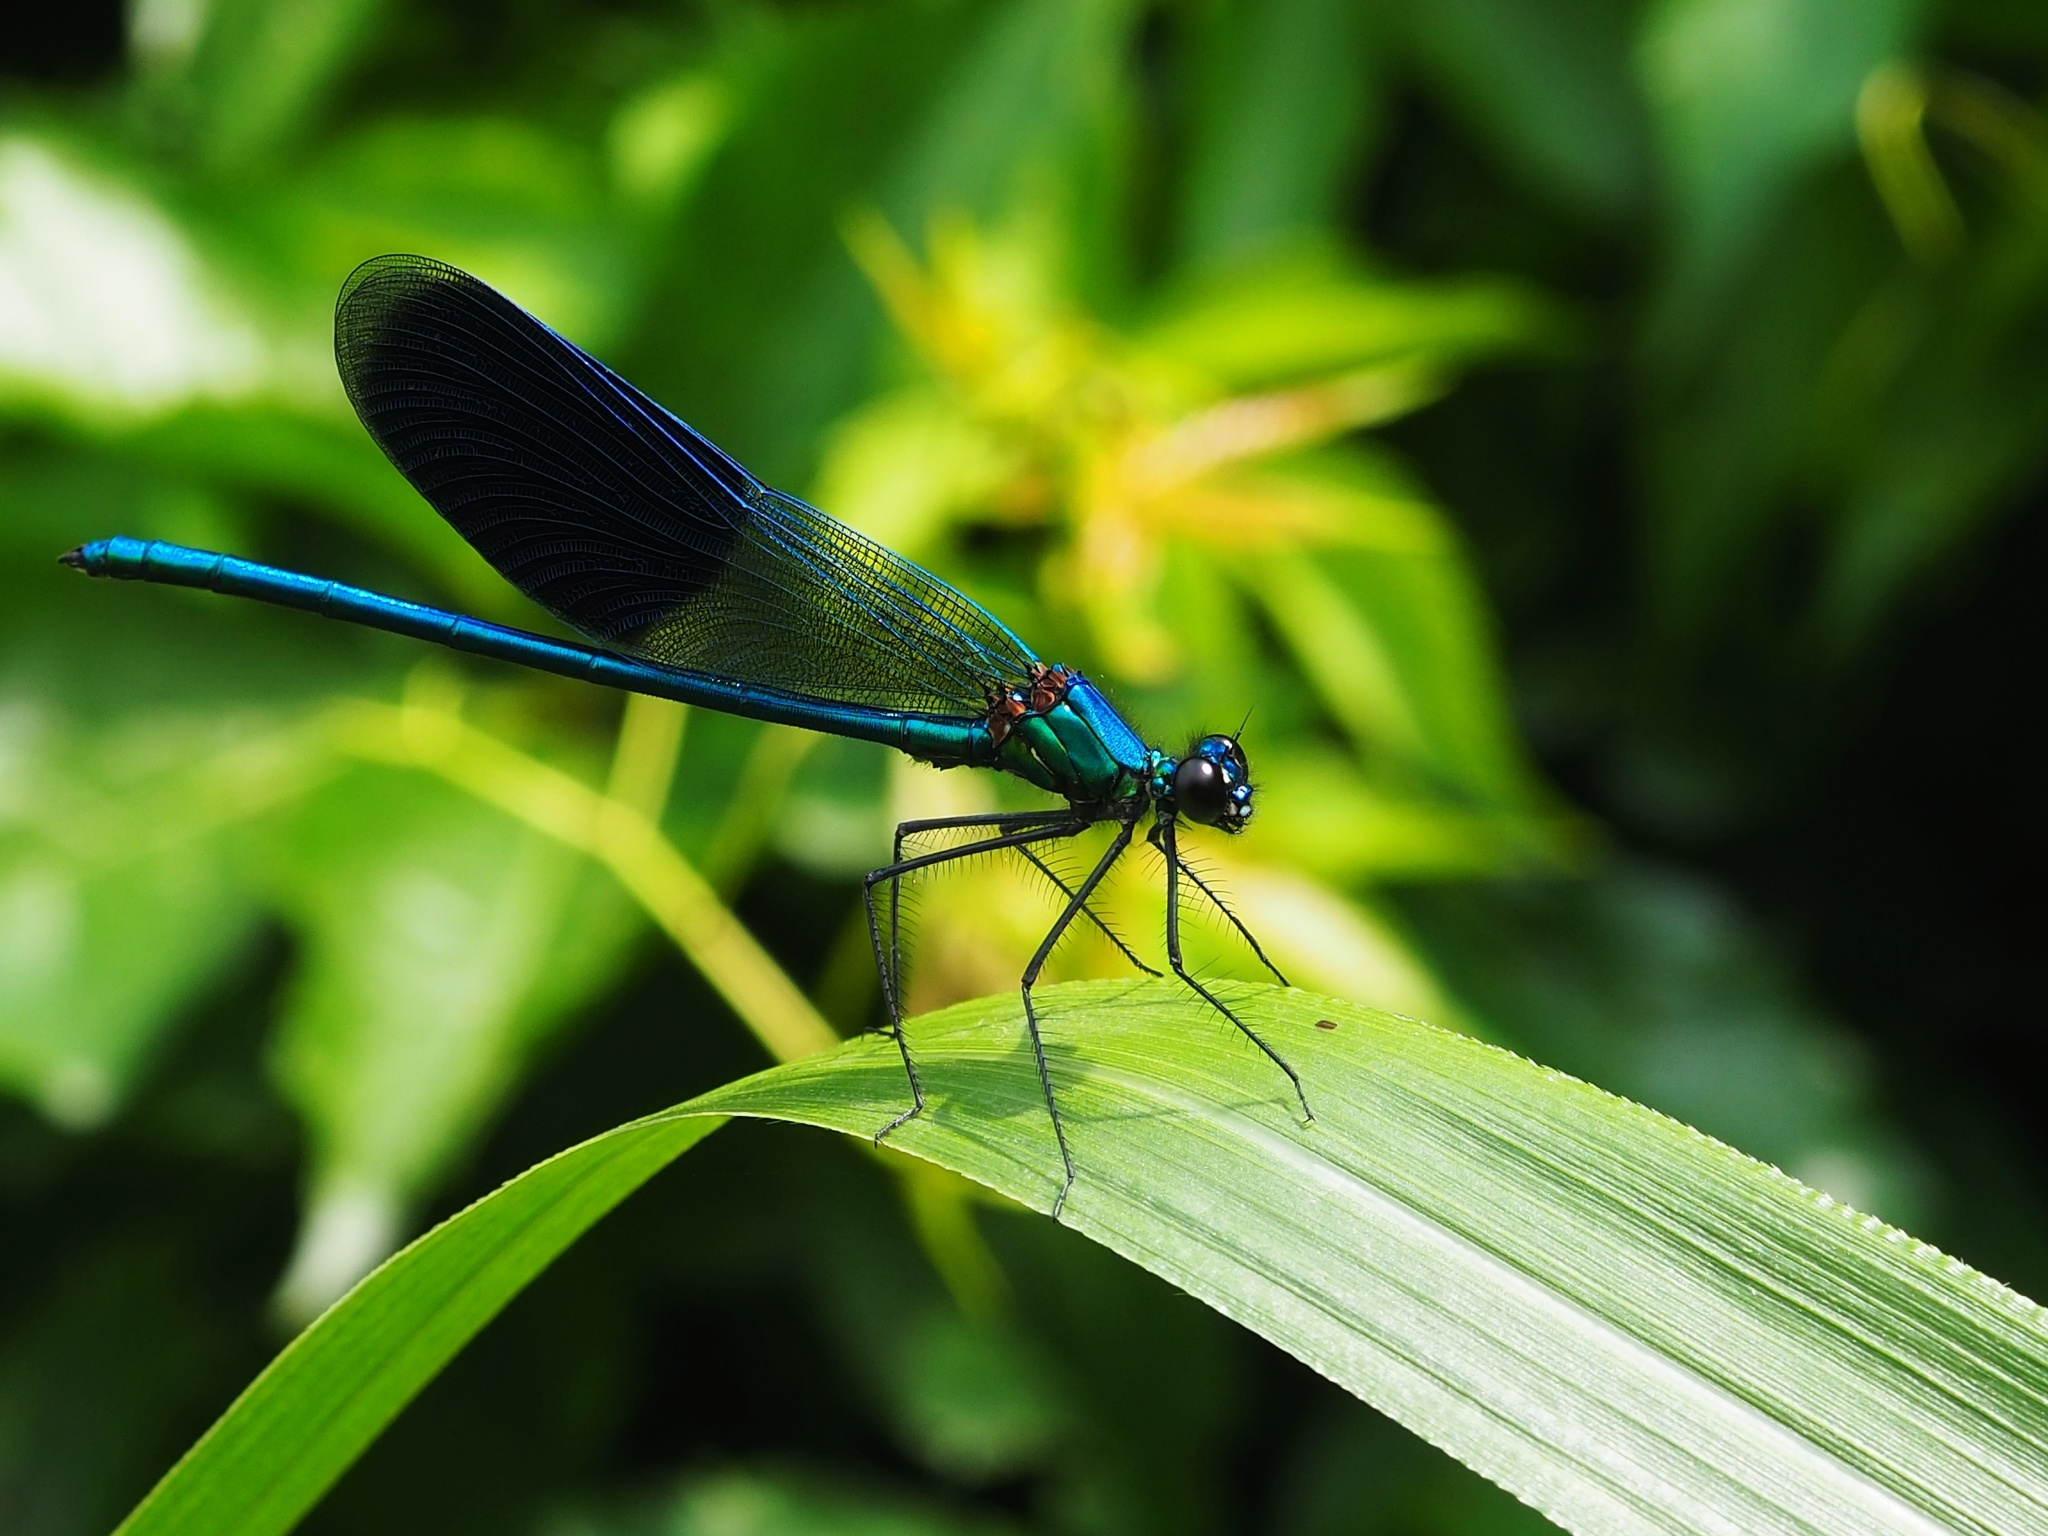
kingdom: Animalia
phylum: Arthropoda
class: Insecta
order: Odonata
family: Calopterygidae
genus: Calopteryx
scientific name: Calopteryx splendens
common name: Banded demoiselle
